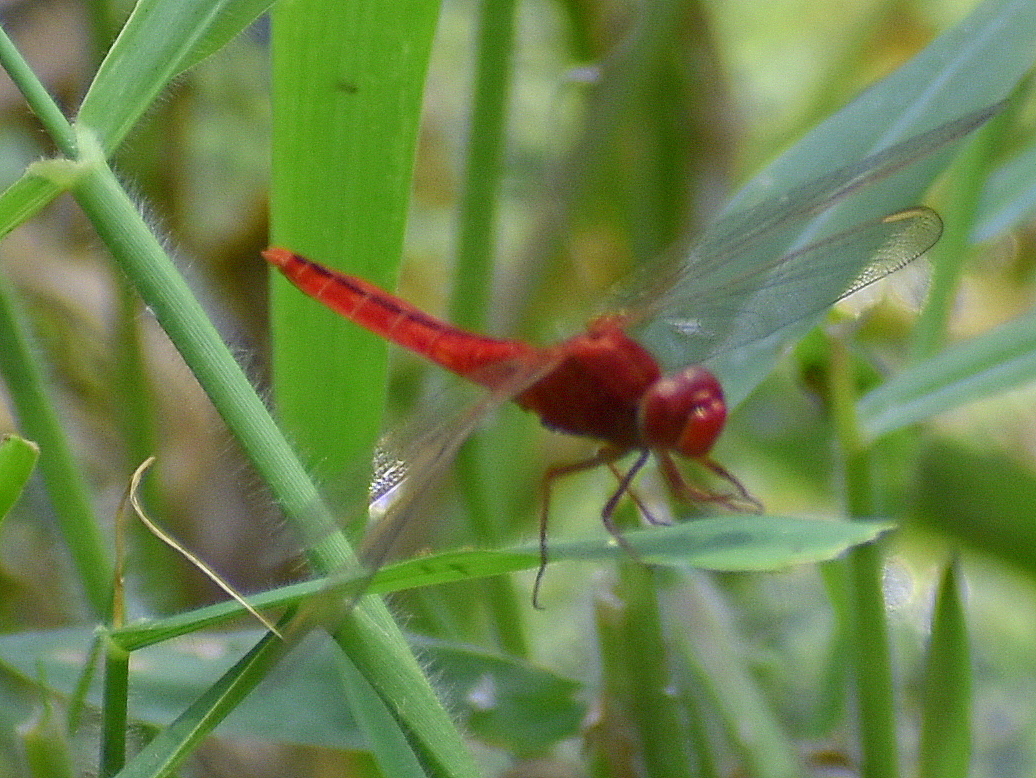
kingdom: Animalia
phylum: Arthropoda
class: Insecta
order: Odonata
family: Libellulidae
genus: Crocothemis
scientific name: Crocothemis servilia
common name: Scarlet skimmer
